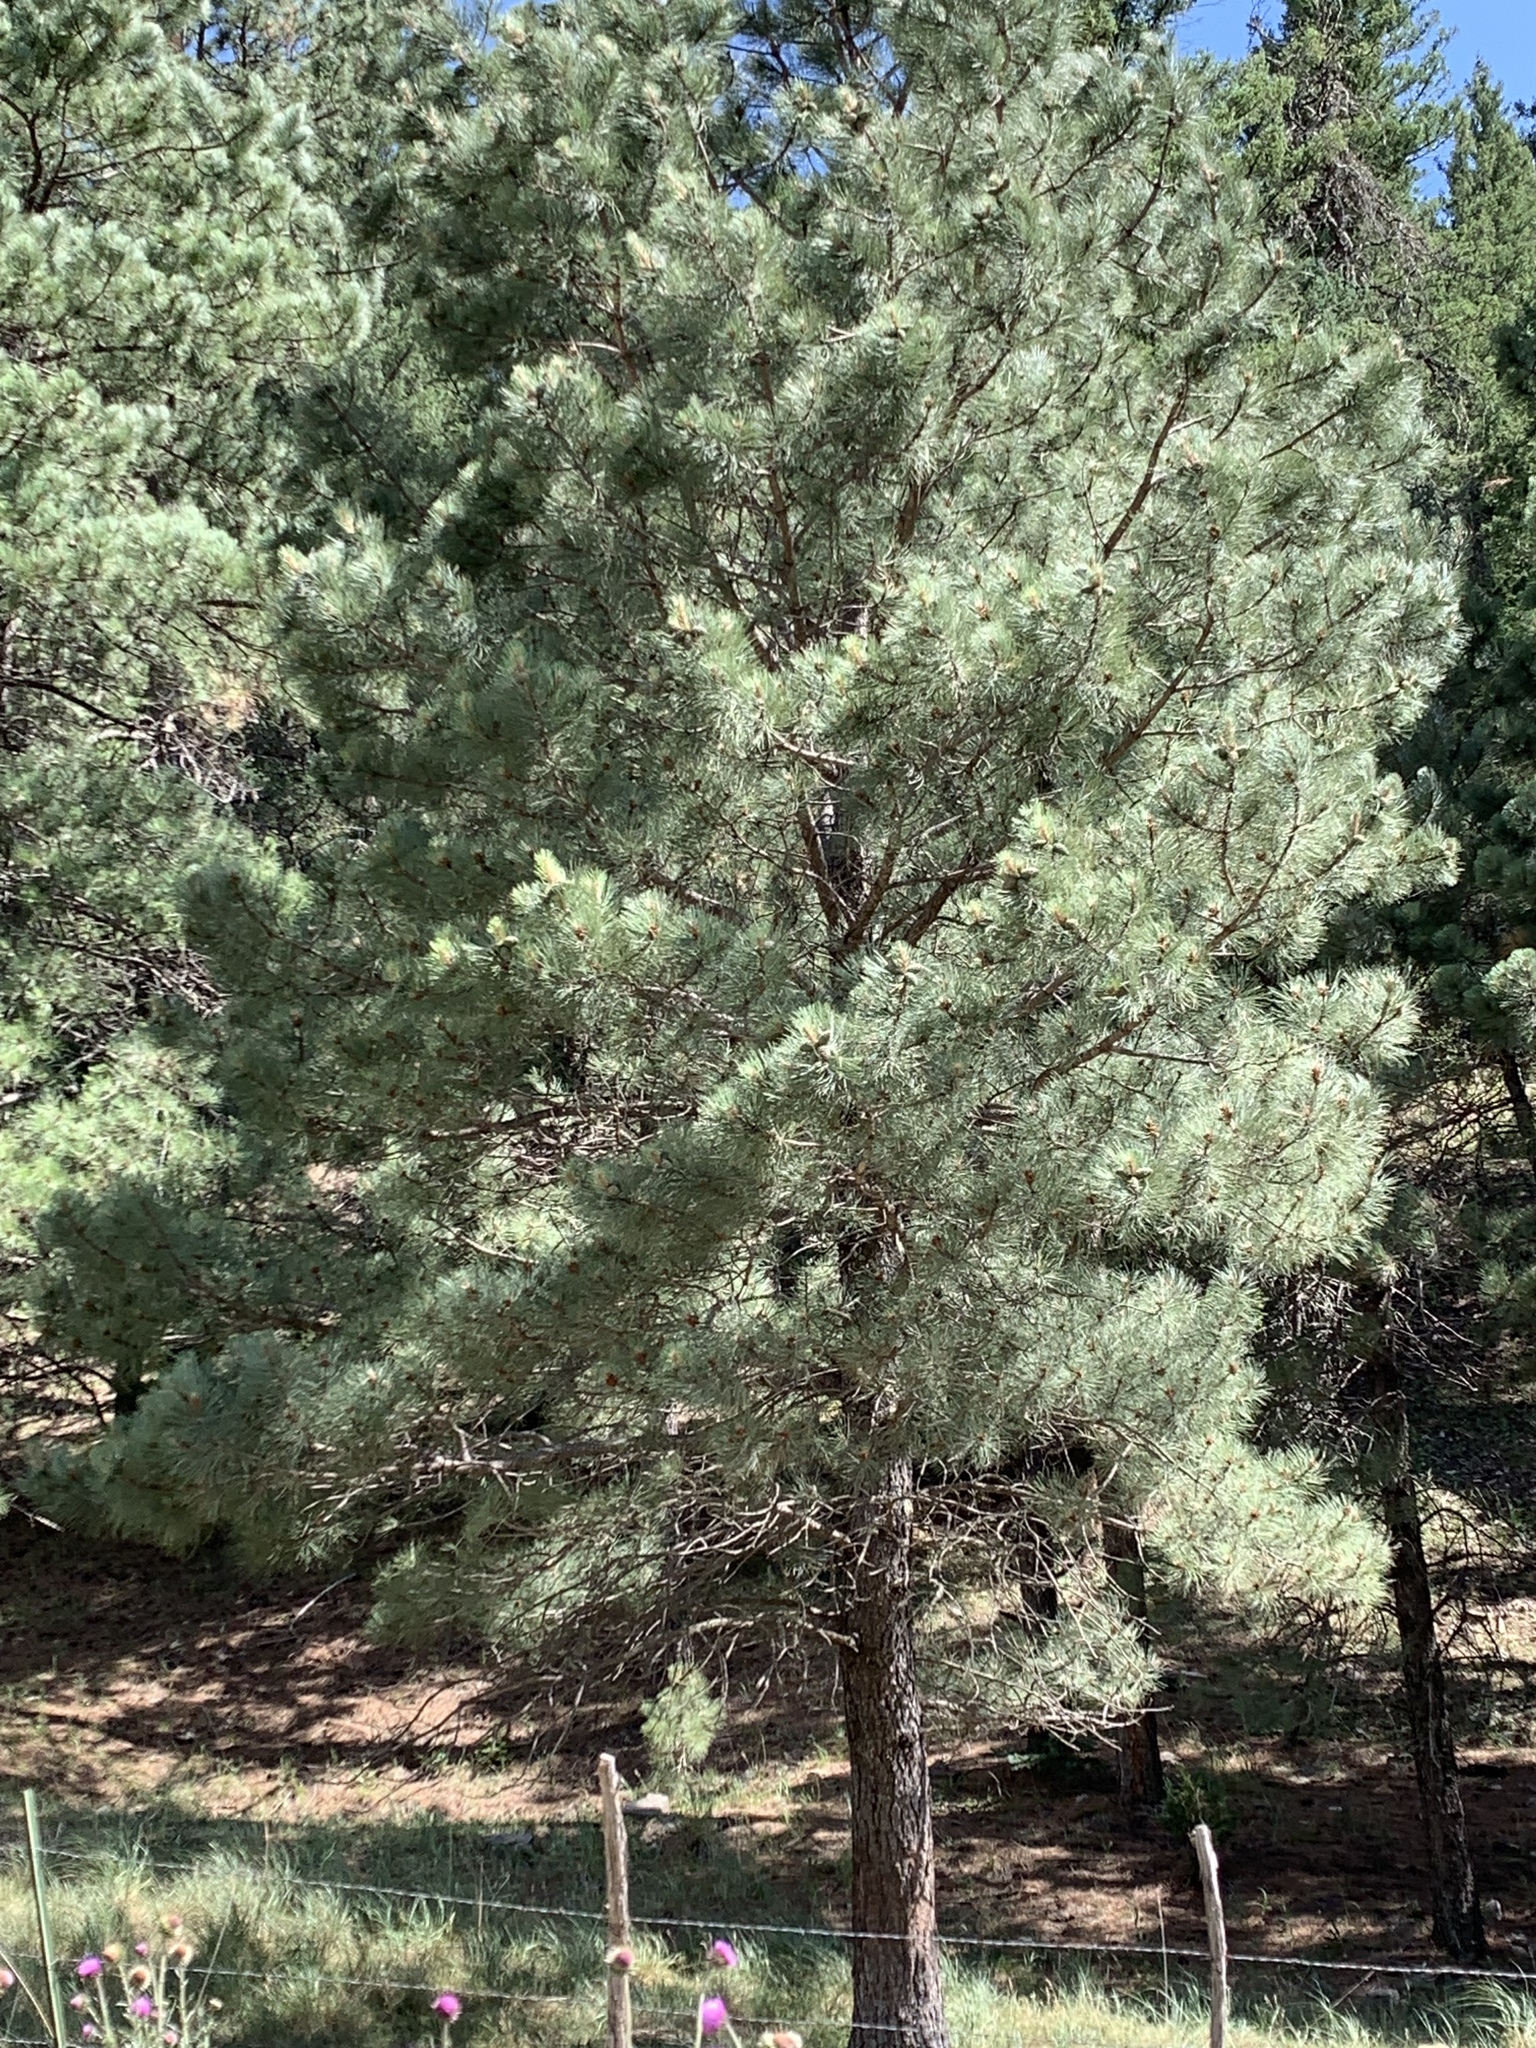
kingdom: Plantae
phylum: Tracheophyta
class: Pinopsida
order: Pinales
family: Pinaceae
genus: Pinus
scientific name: Pinus ponderosa
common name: Western yellow-pine
